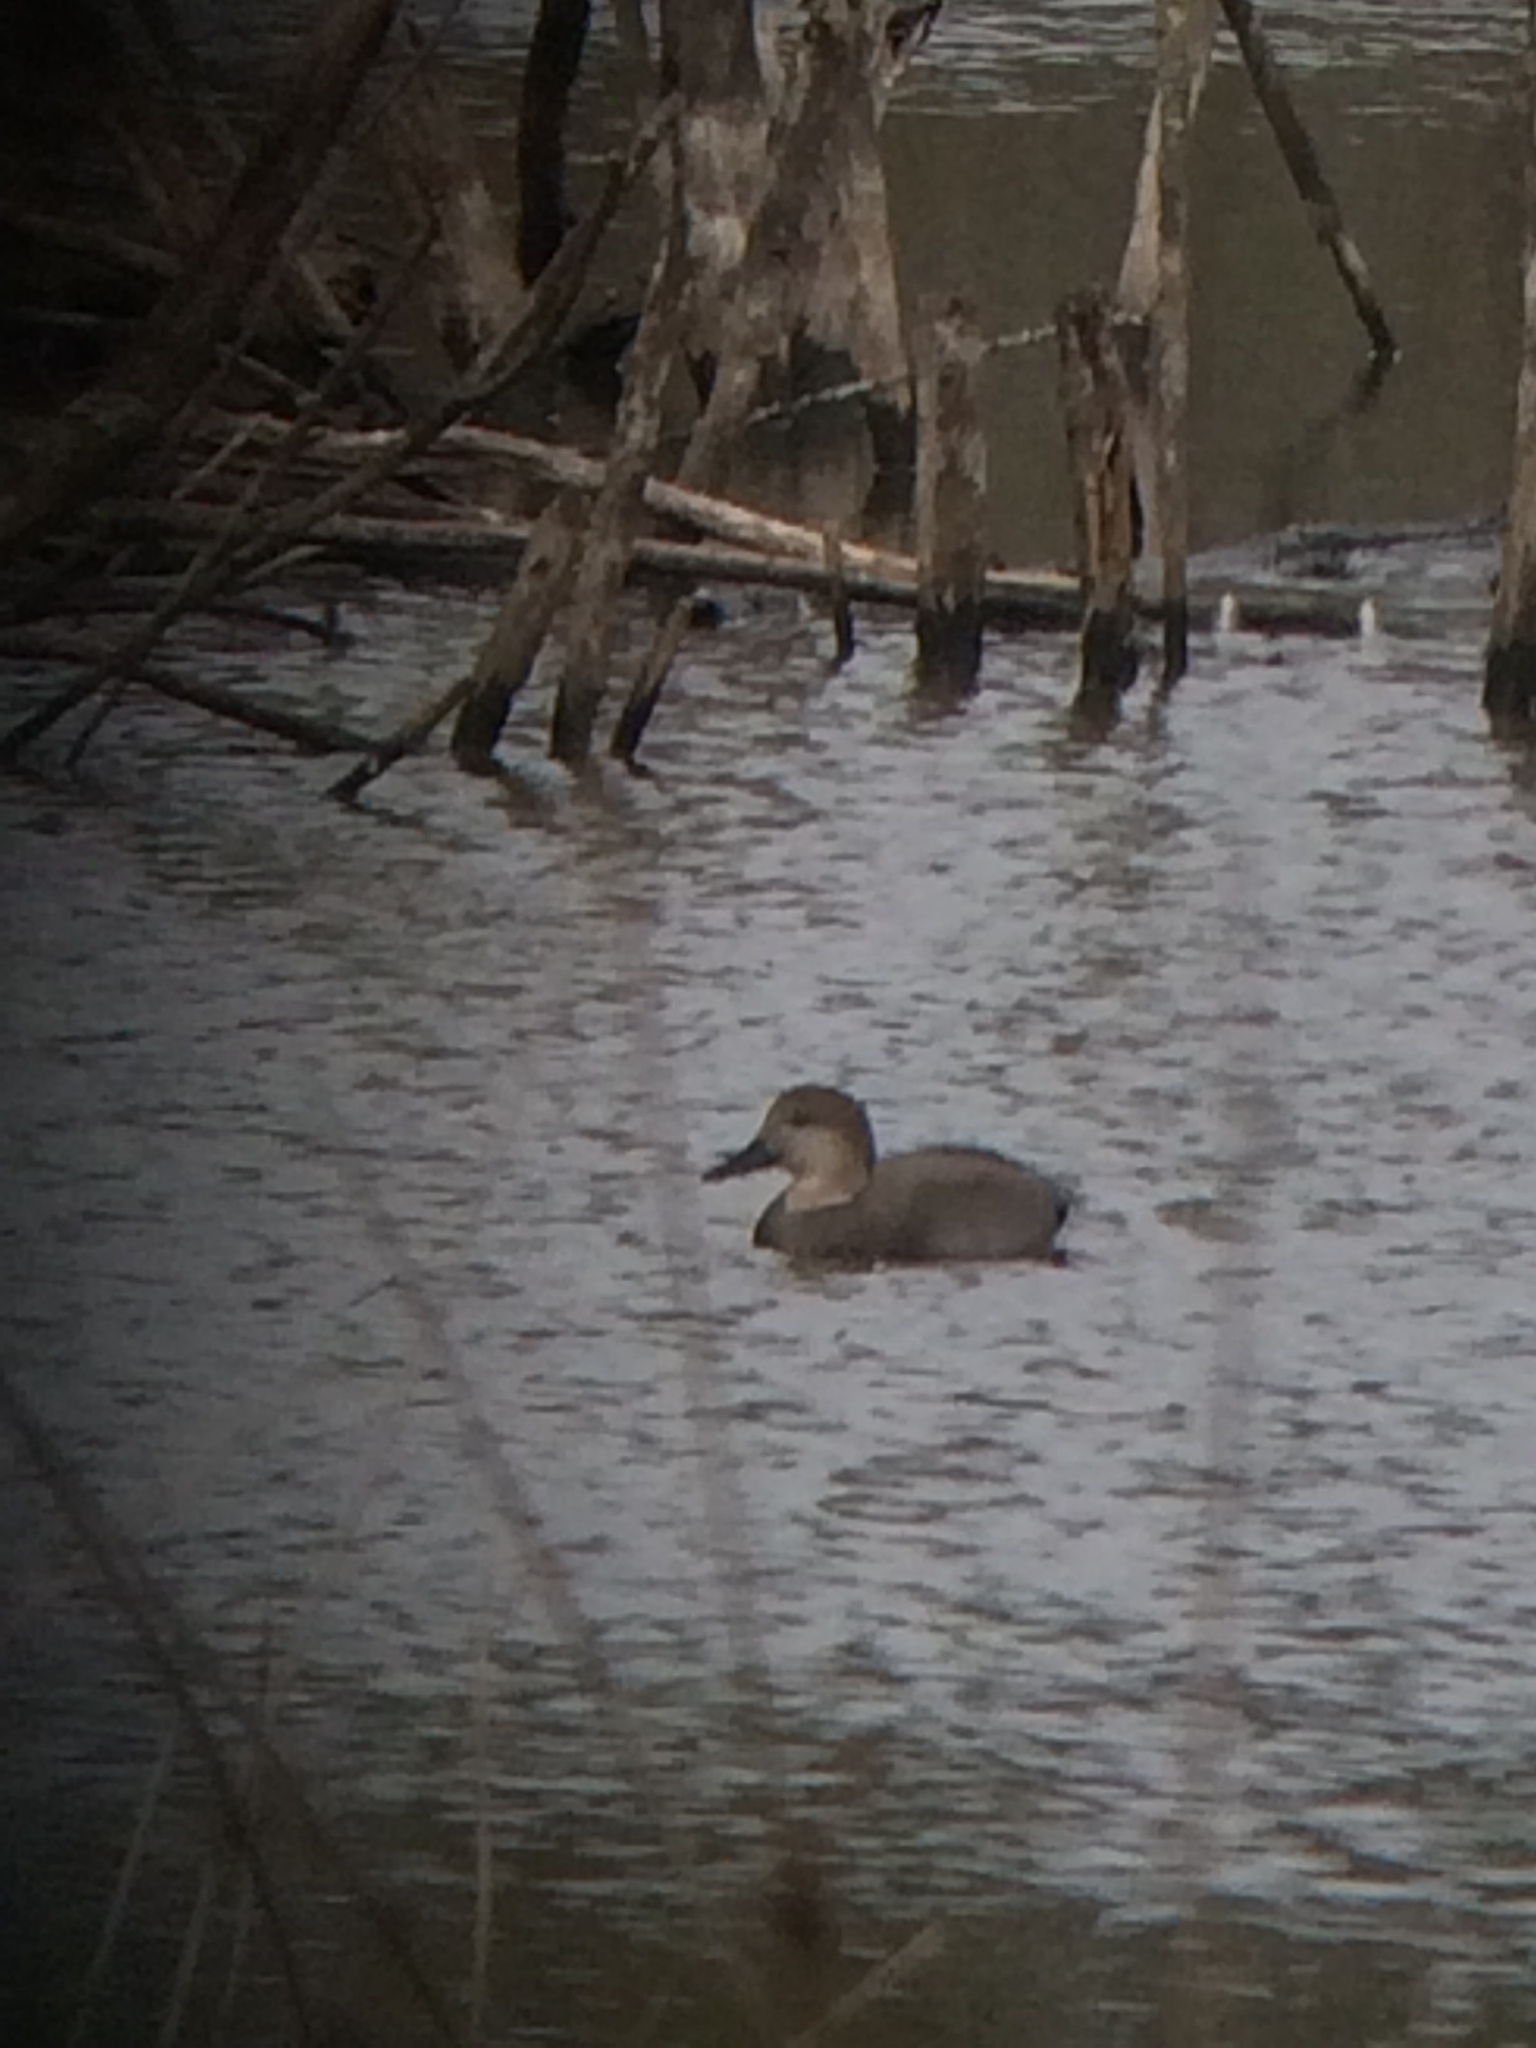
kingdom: Animalia
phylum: Chordata
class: Aves
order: Anseriformes
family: Anatidae
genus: Mareca
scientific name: Mareca strepera
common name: Gadwall
